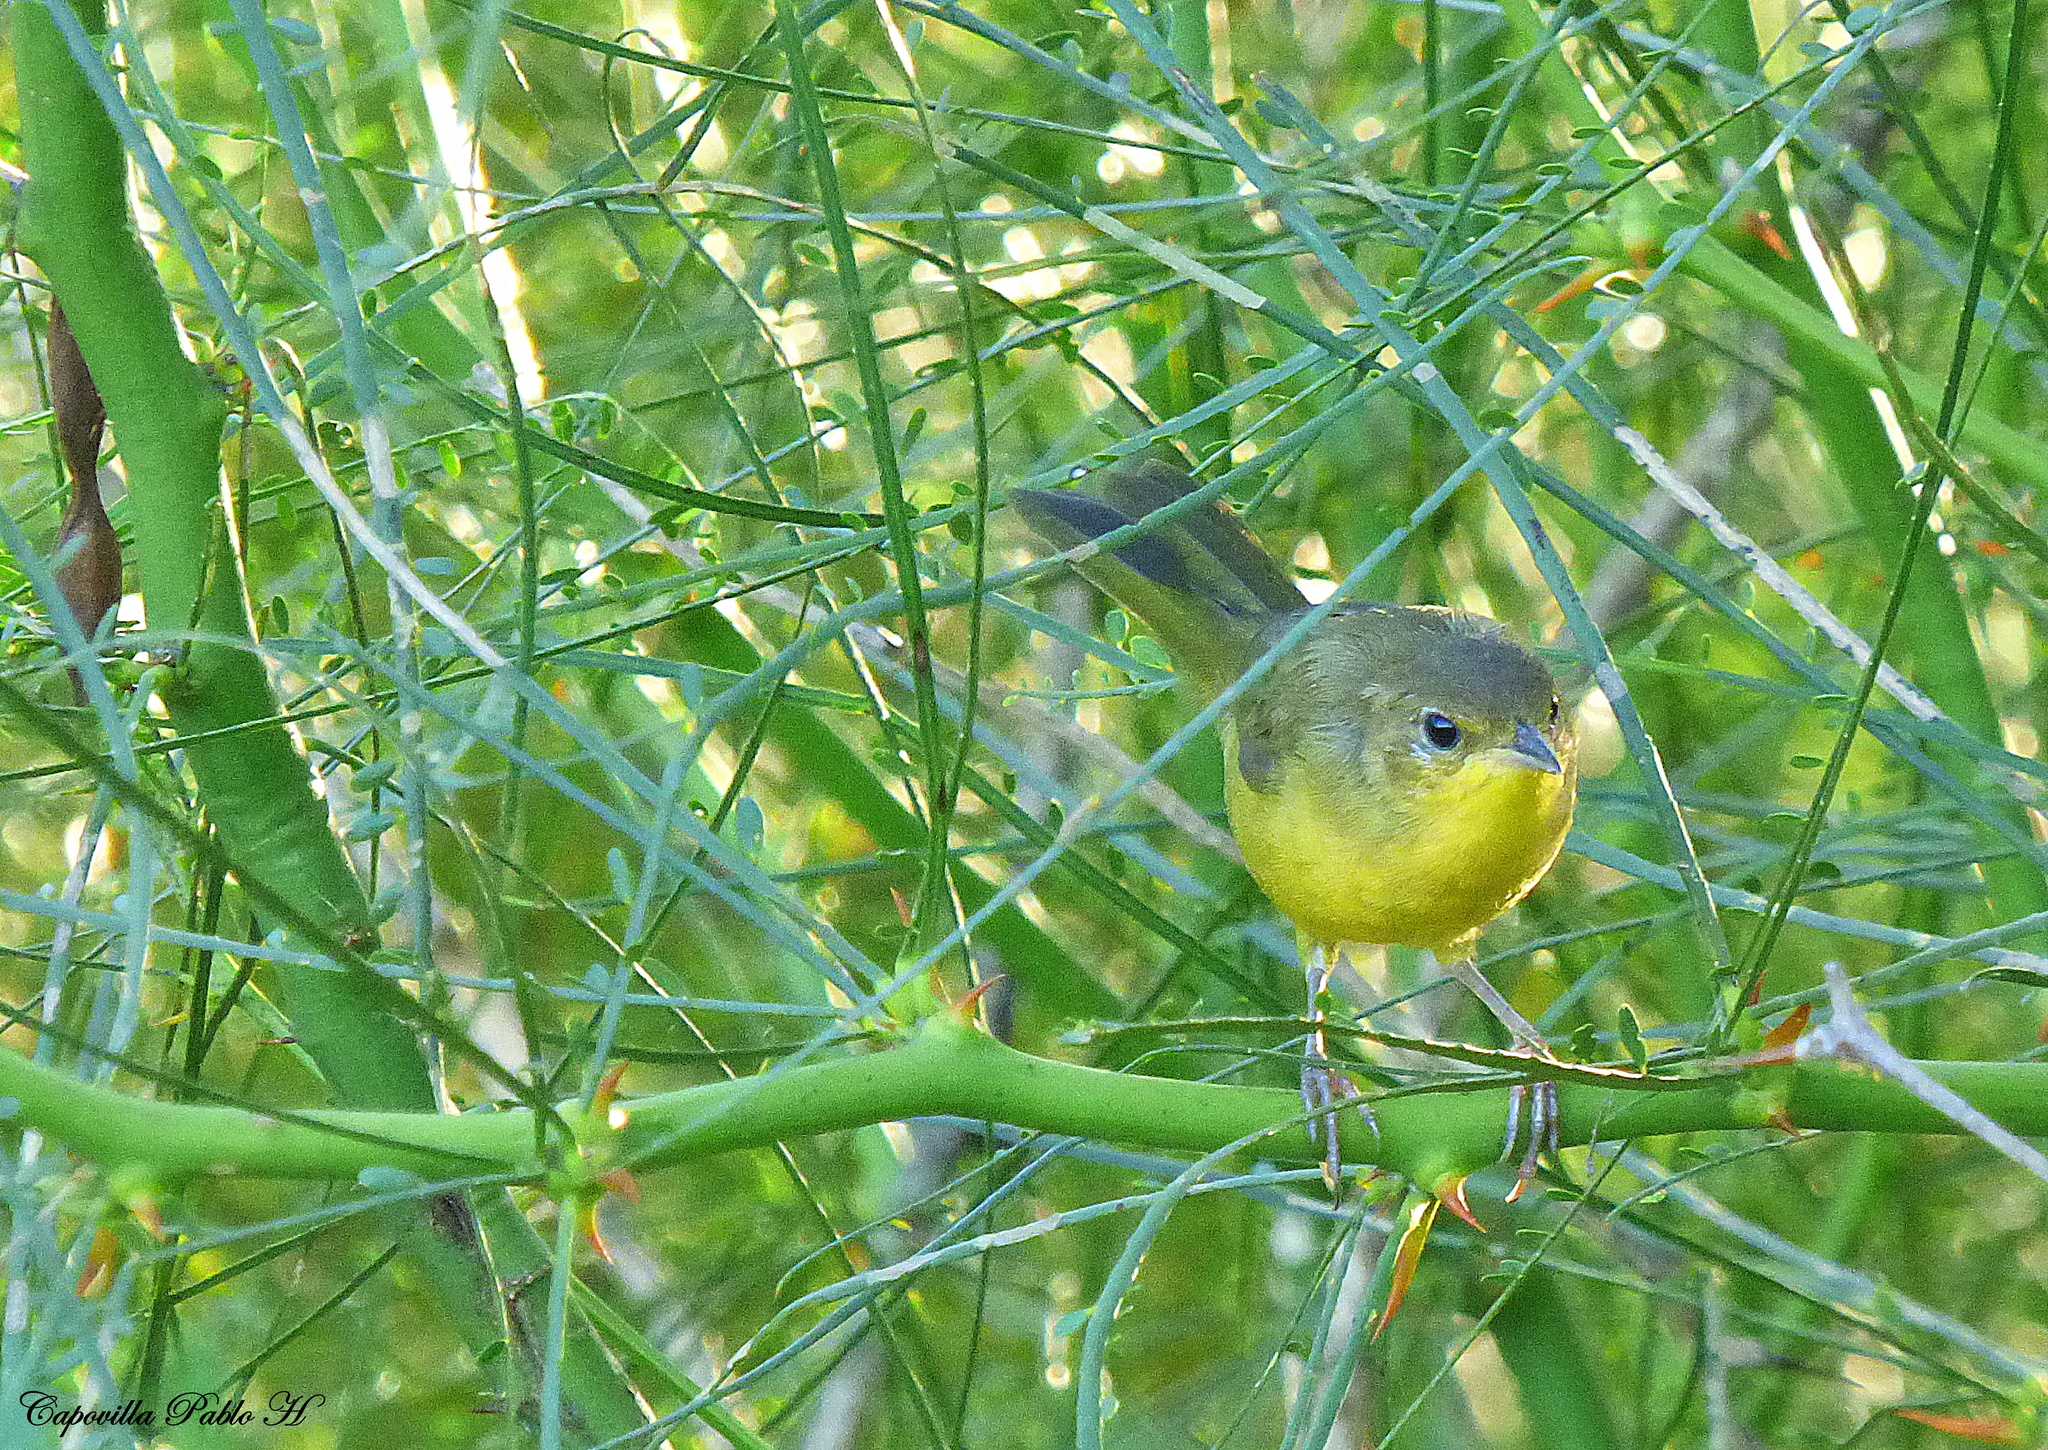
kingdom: Animalia
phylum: Chordata
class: Aves
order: Passeriformes
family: Parulidae
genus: Geothlypis
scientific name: Geothlypis velata
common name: Southern yellowthroat
